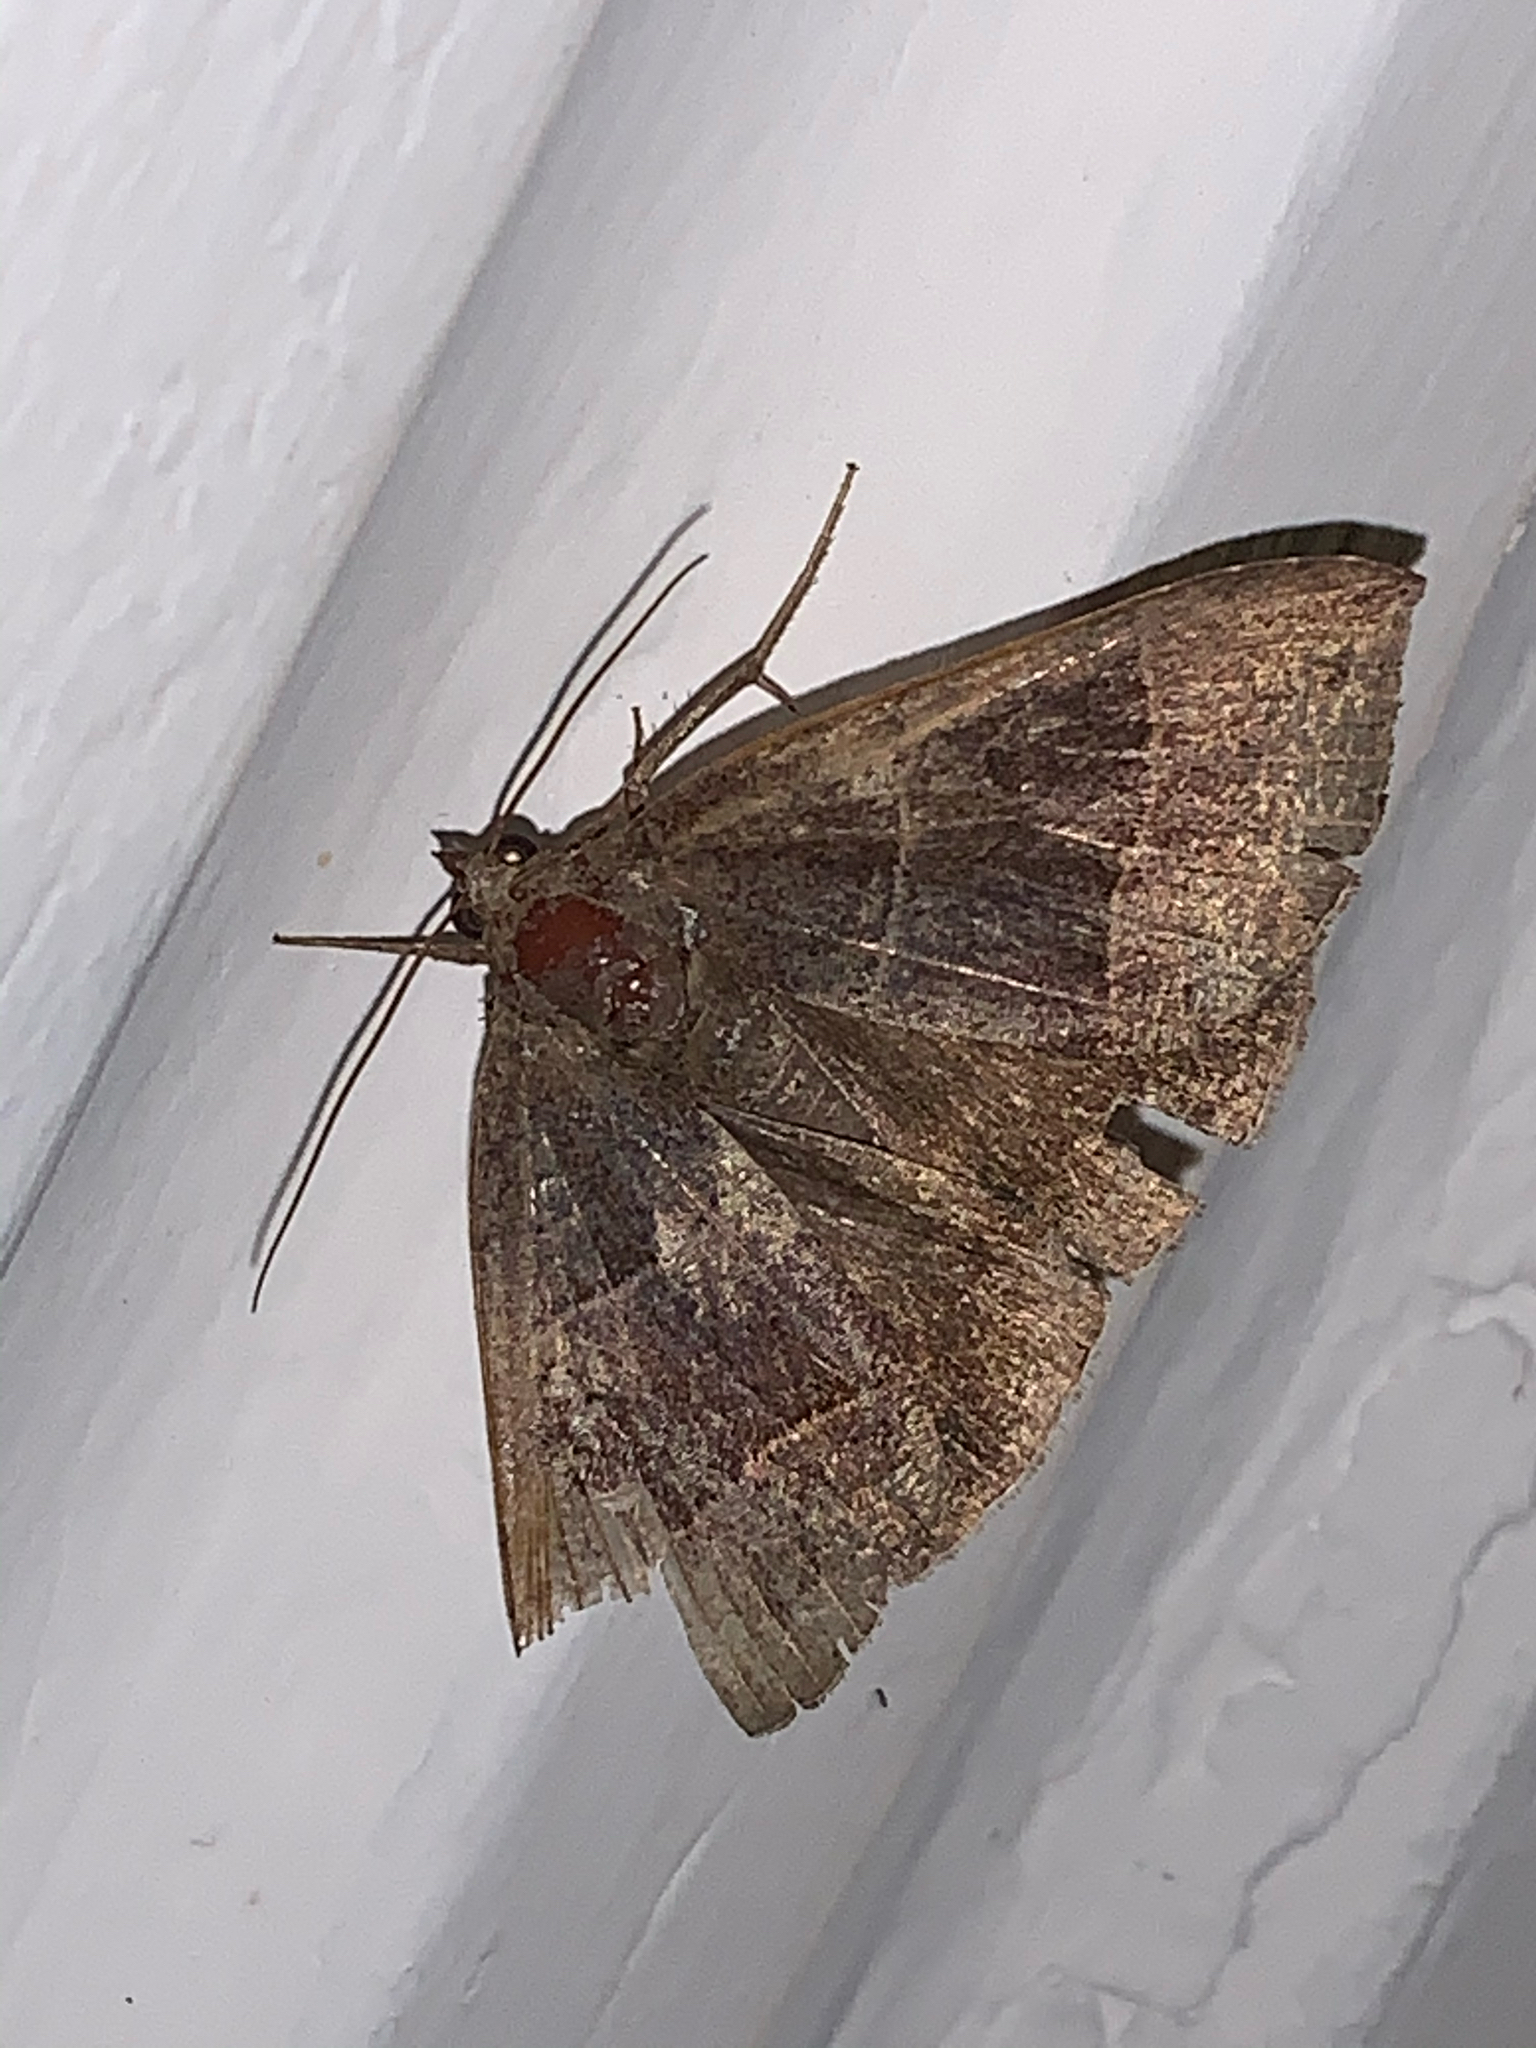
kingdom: Animalia
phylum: Arthropoda
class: Insecta
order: Lepidoptera
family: Erebidae
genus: Parallelia
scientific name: Parallelia bistriaris
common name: Maple looper moth
